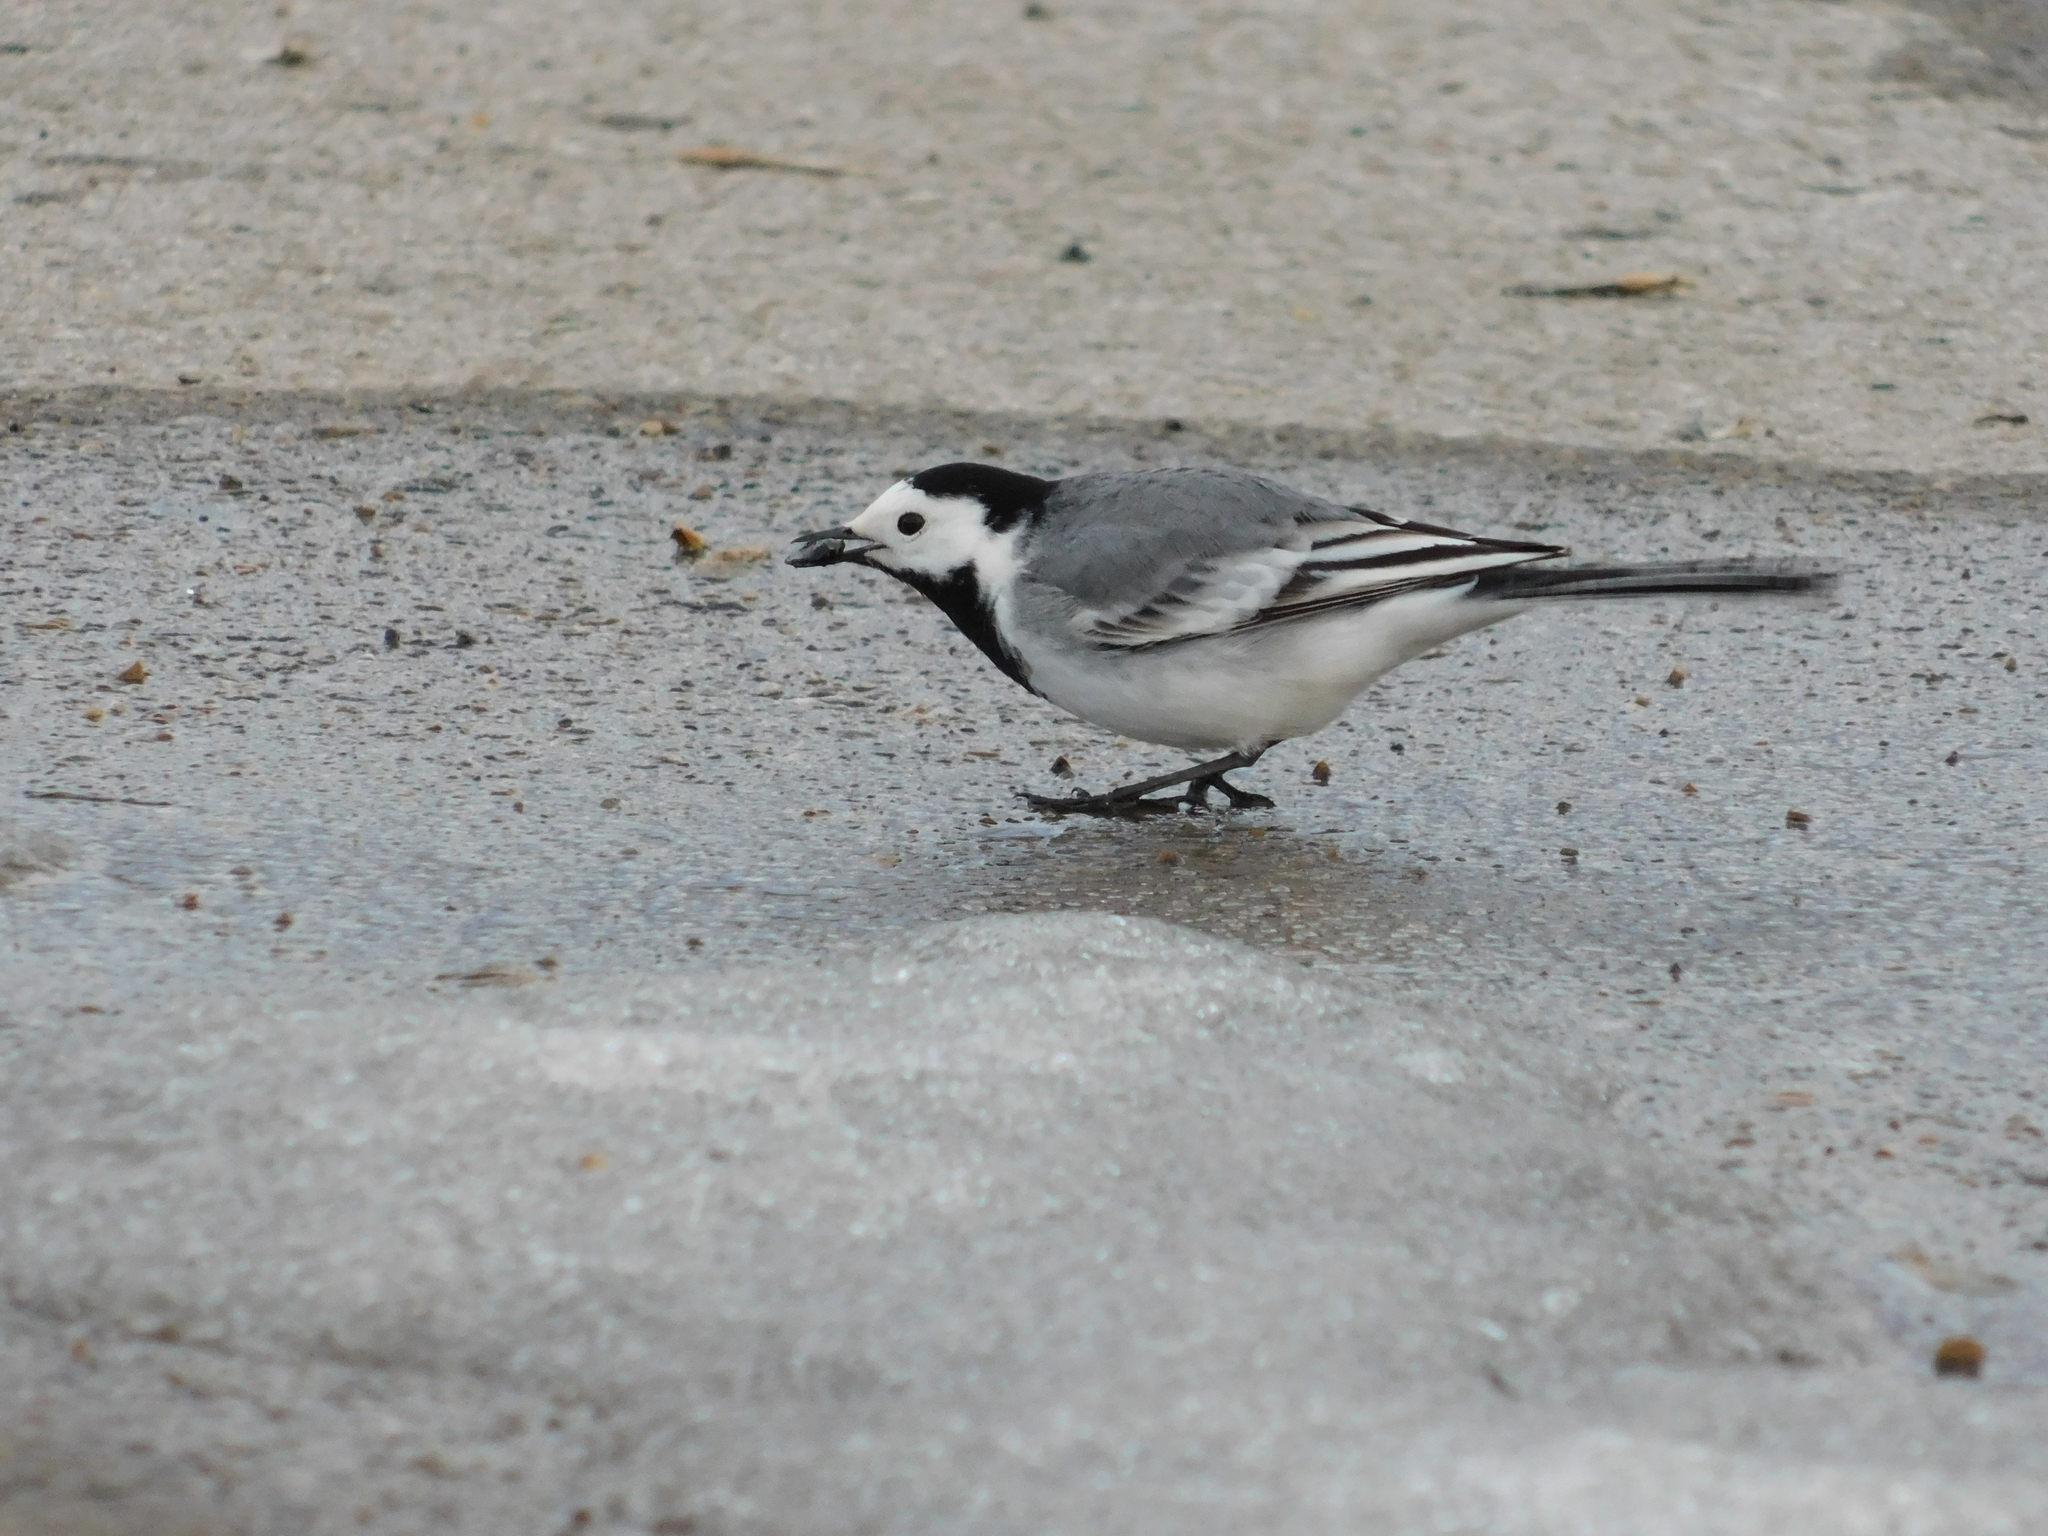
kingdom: Animalia
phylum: Chordata
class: Aves
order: Passeriformes
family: Motacillidae
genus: Motacilla
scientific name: Motacilla alba
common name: White wagtail
